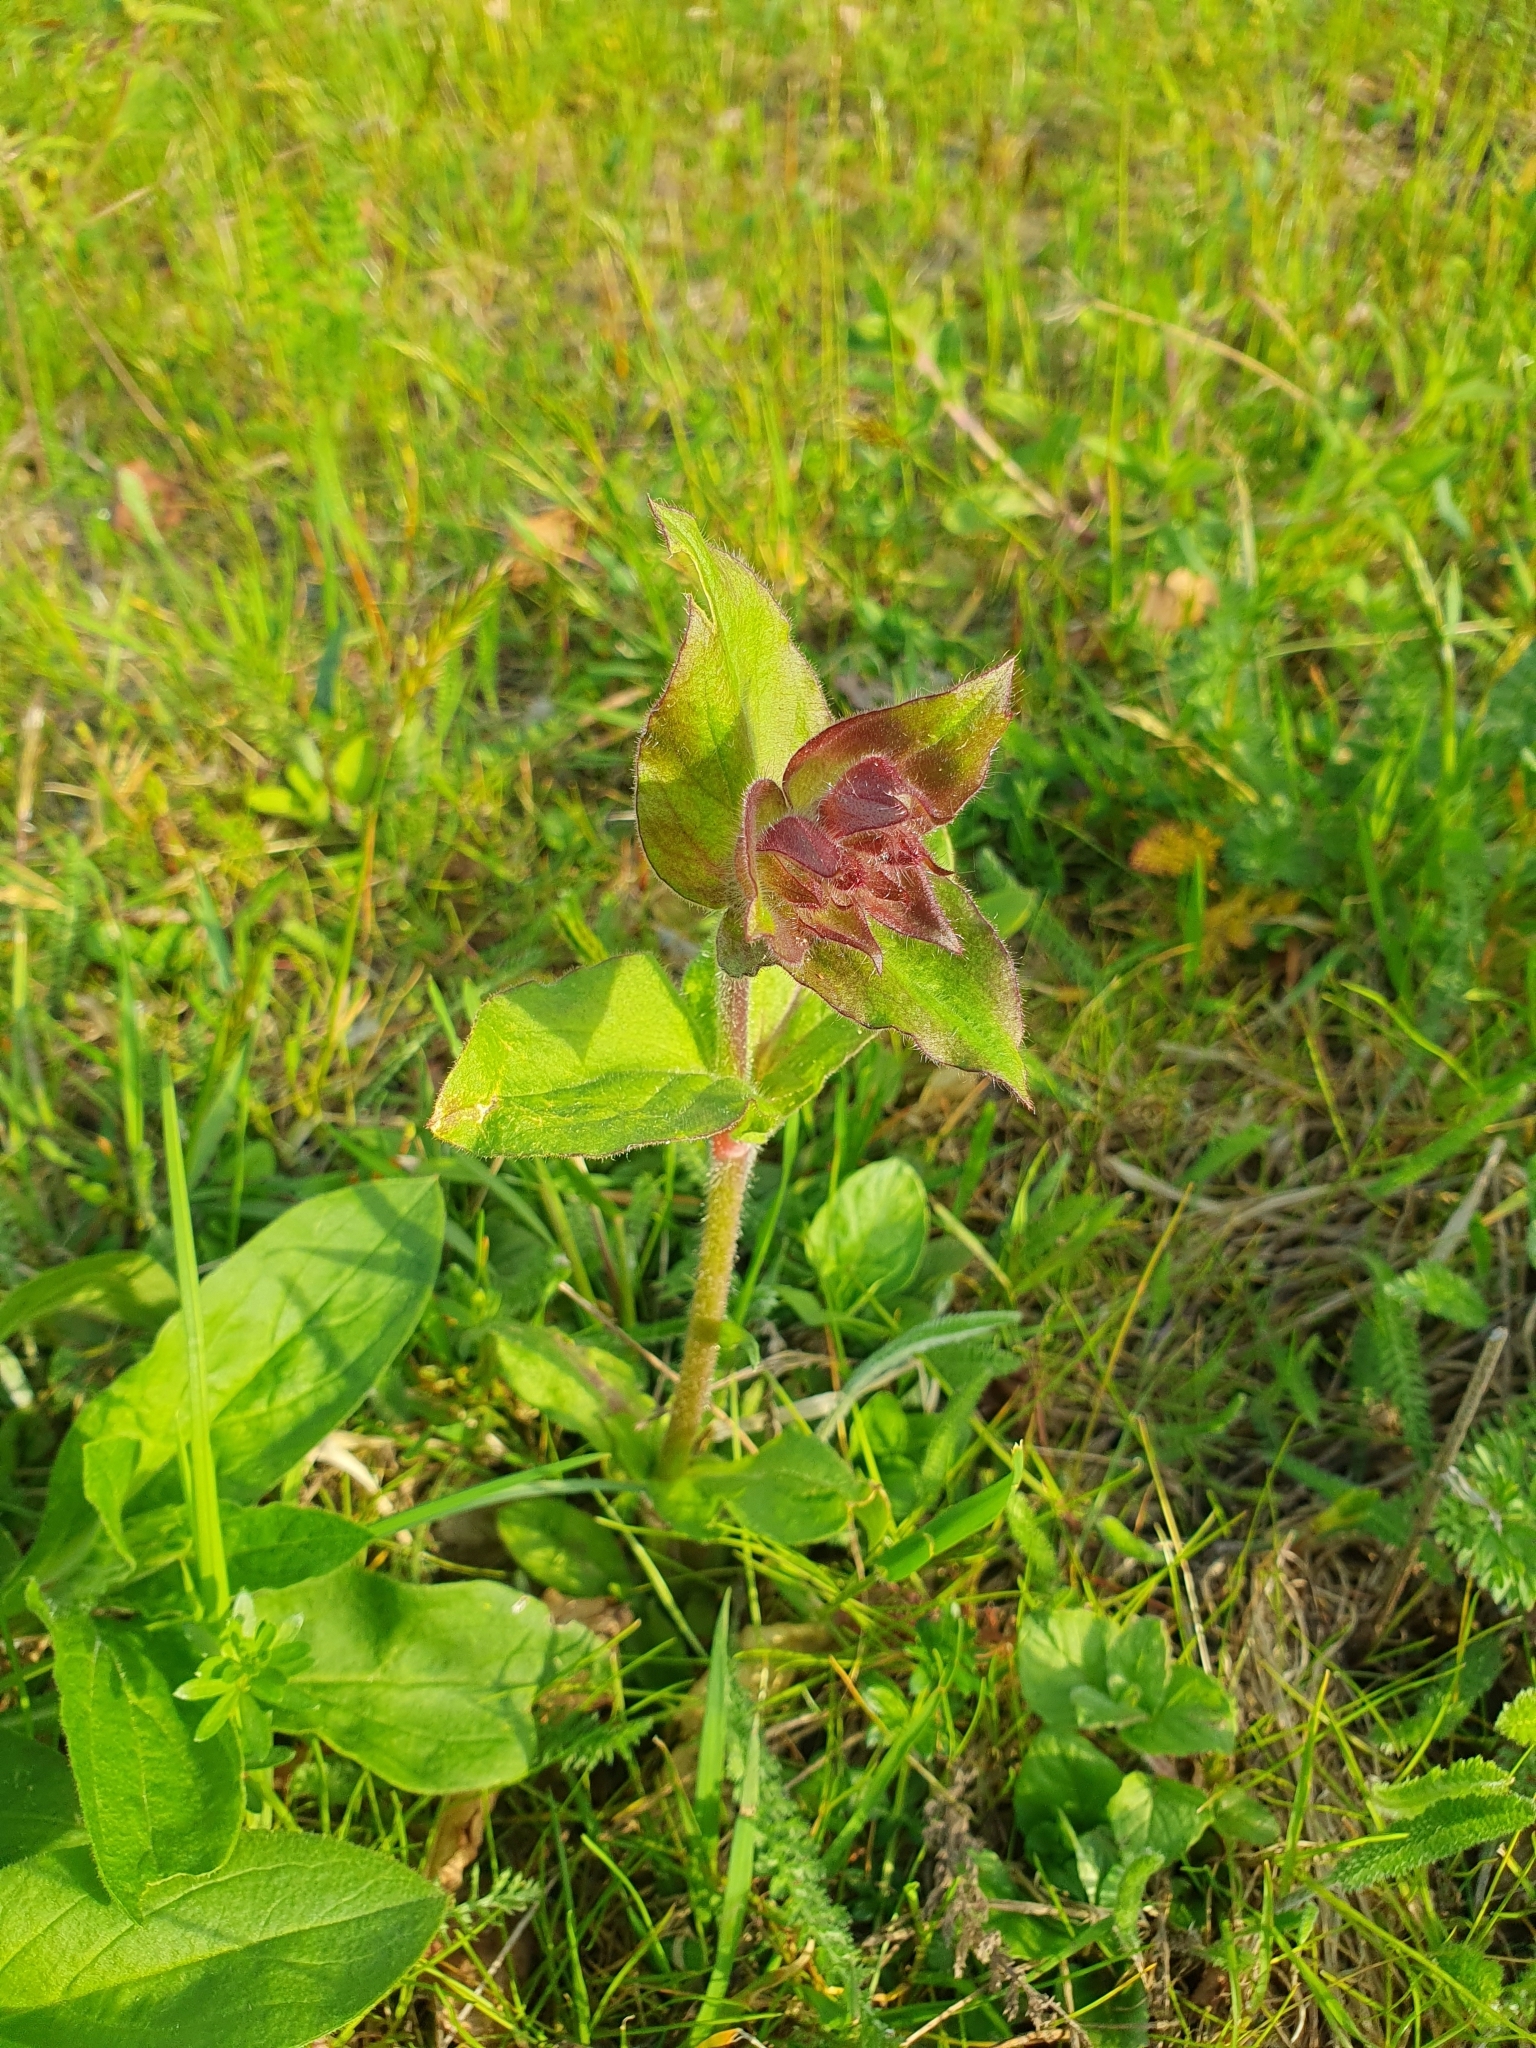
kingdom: Plantae
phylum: Tracheophyta
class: Magnoliopsida
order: Caryophyllales
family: Caryophyllaceae
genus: Silene
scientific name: Silene dioica
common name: Red campion
